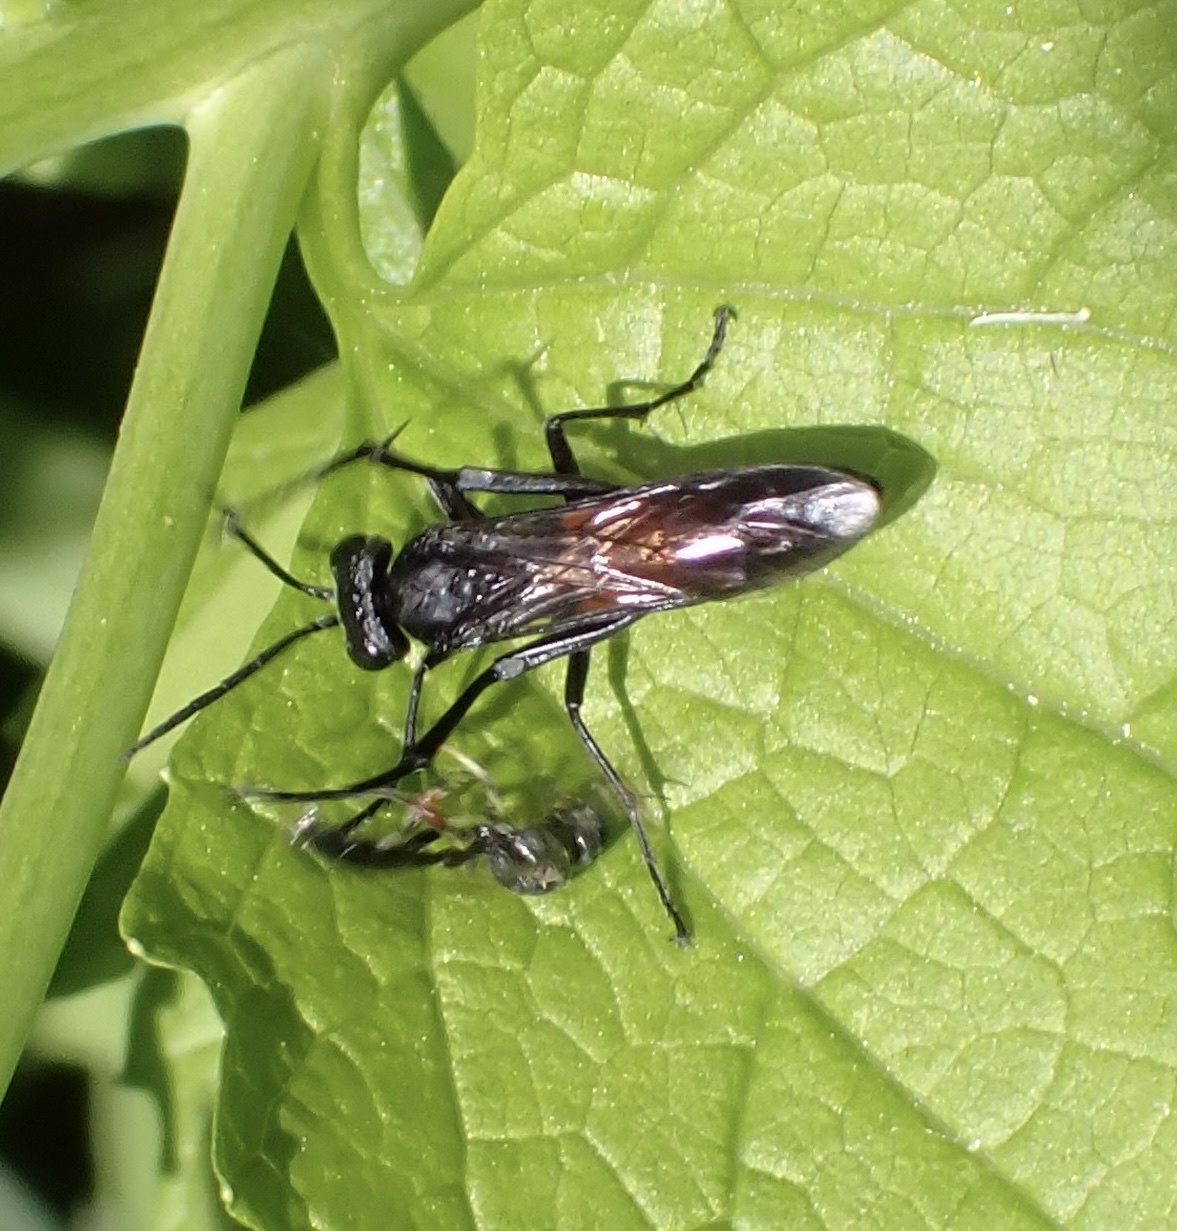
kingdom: Animalia
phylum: Arthropoda
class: Insecta
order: Hymenoptera
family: Tenthredinidae
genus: Macrophya
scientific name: Macrophya annulata
